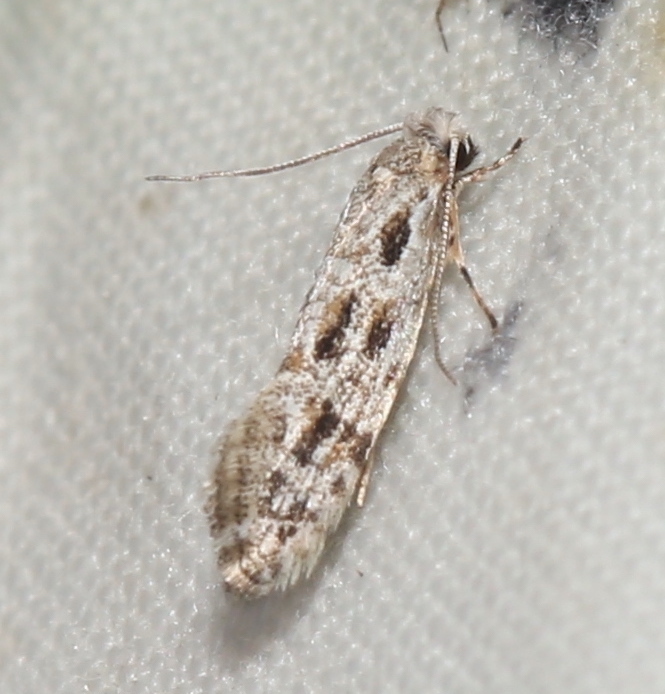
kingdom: Animalia
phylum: Arthropoda
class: Insecta
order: Lepidoptera
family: Meessiidae
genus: Diachorisia
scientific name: Diachorisia velatella
